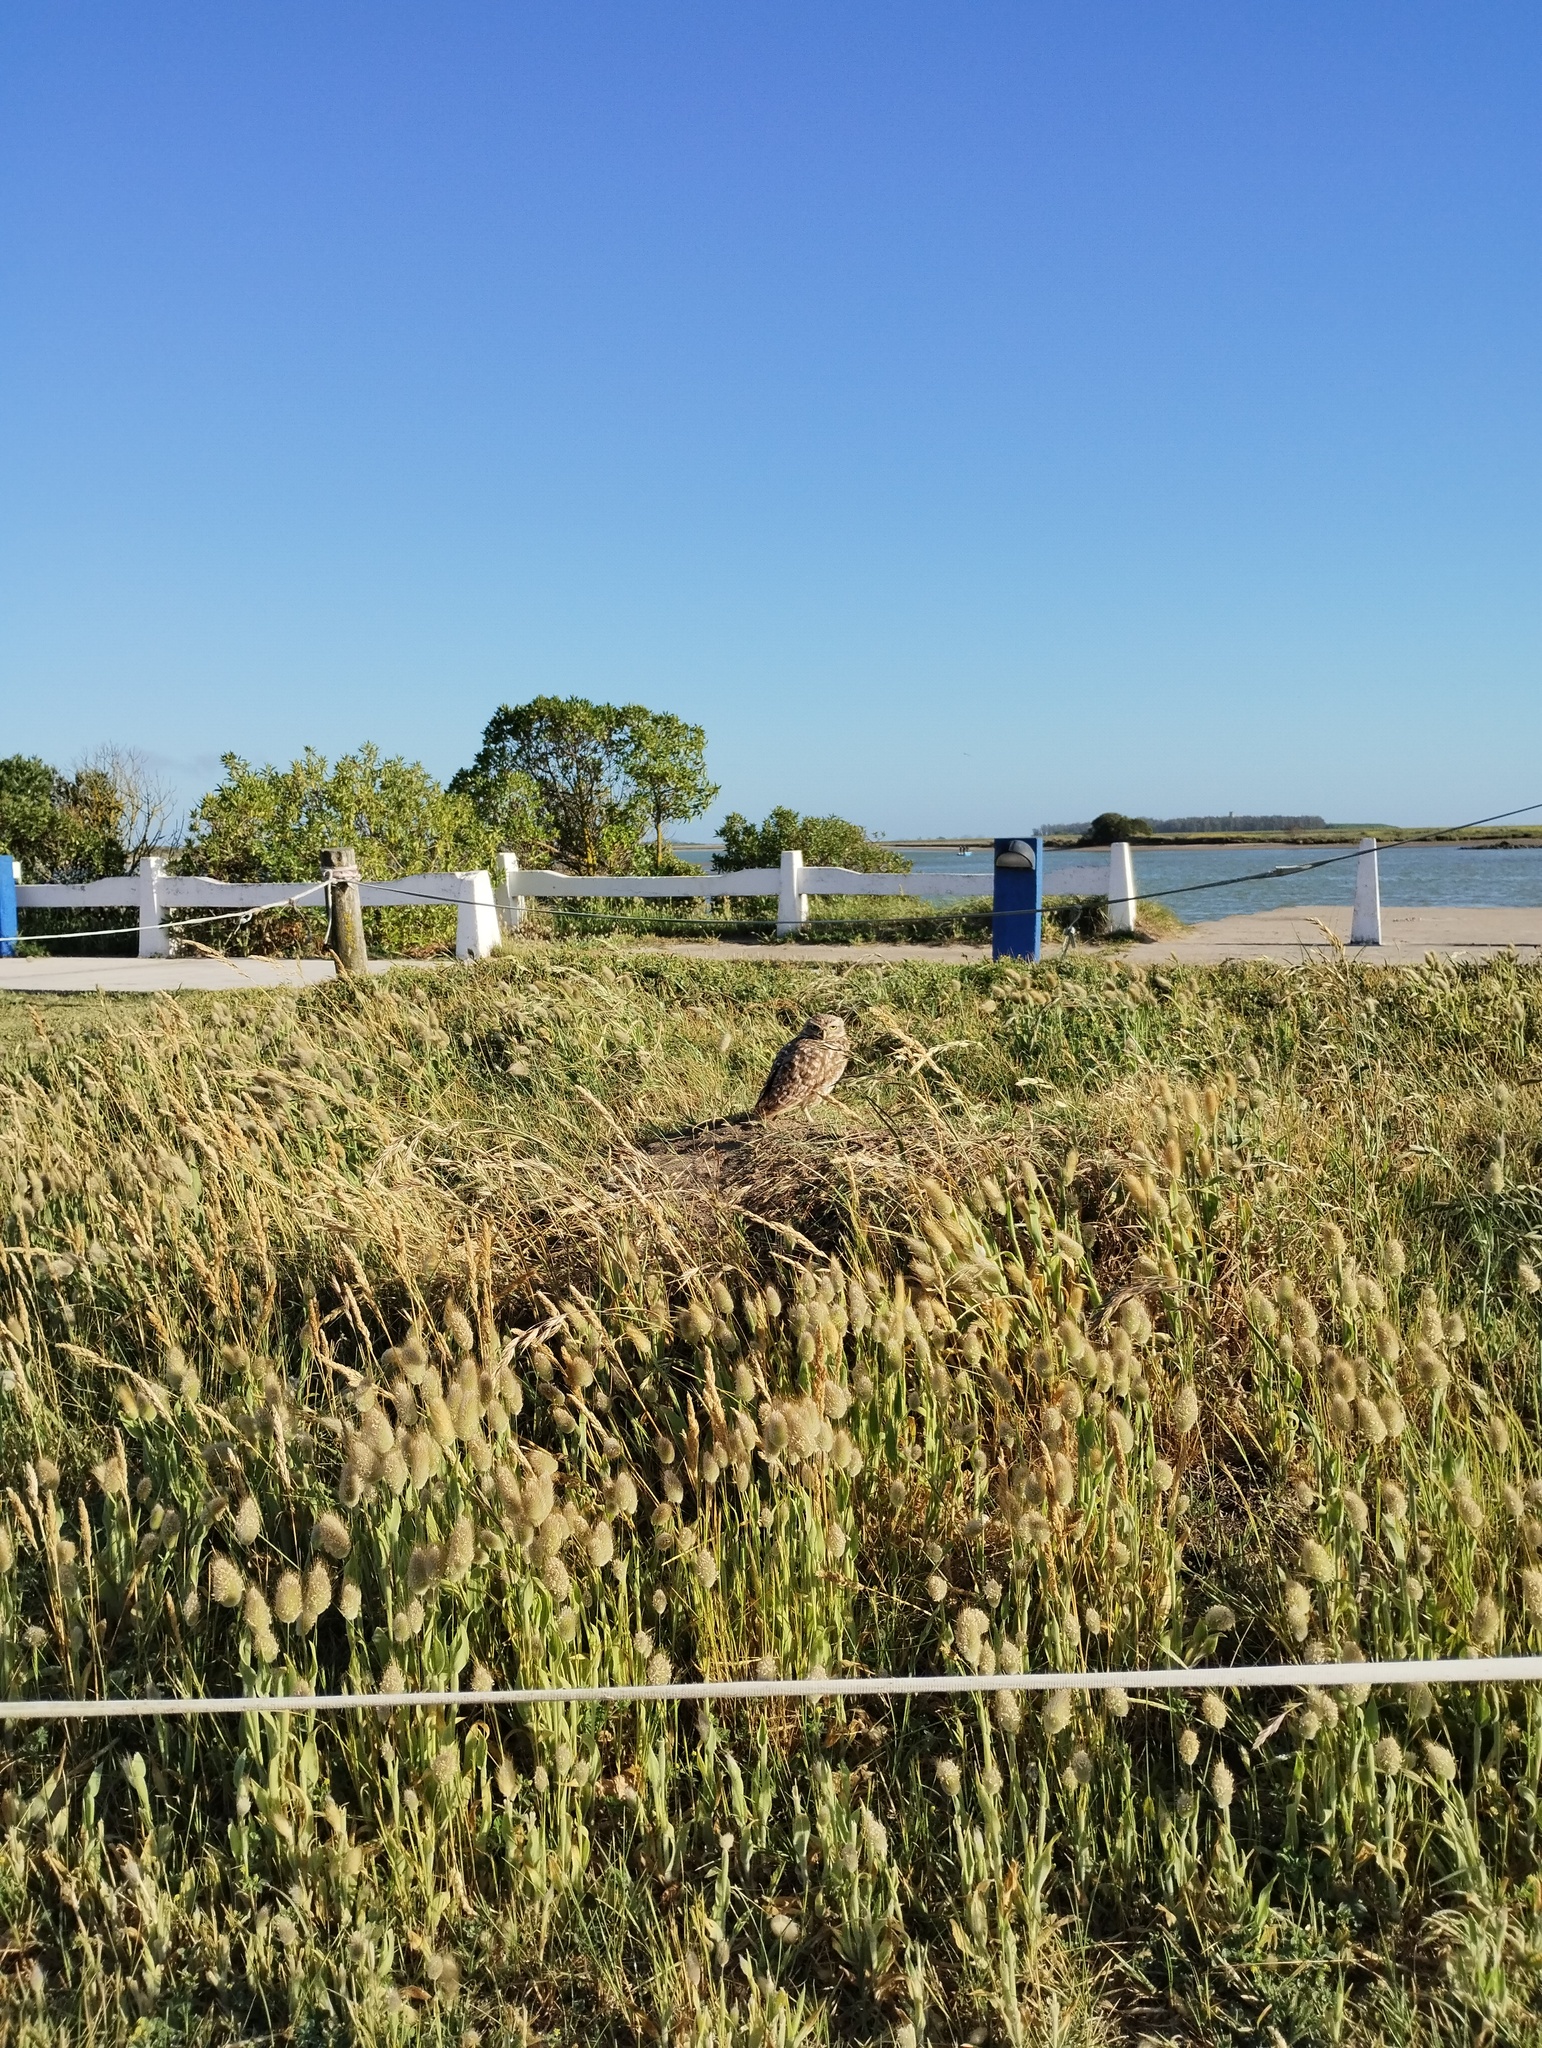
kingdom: Animalia
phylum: Chordata
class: Aves
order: Strigiformes
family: Strigidae
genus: Athene
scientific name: Athene cunicularia
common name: Burrowing owl
